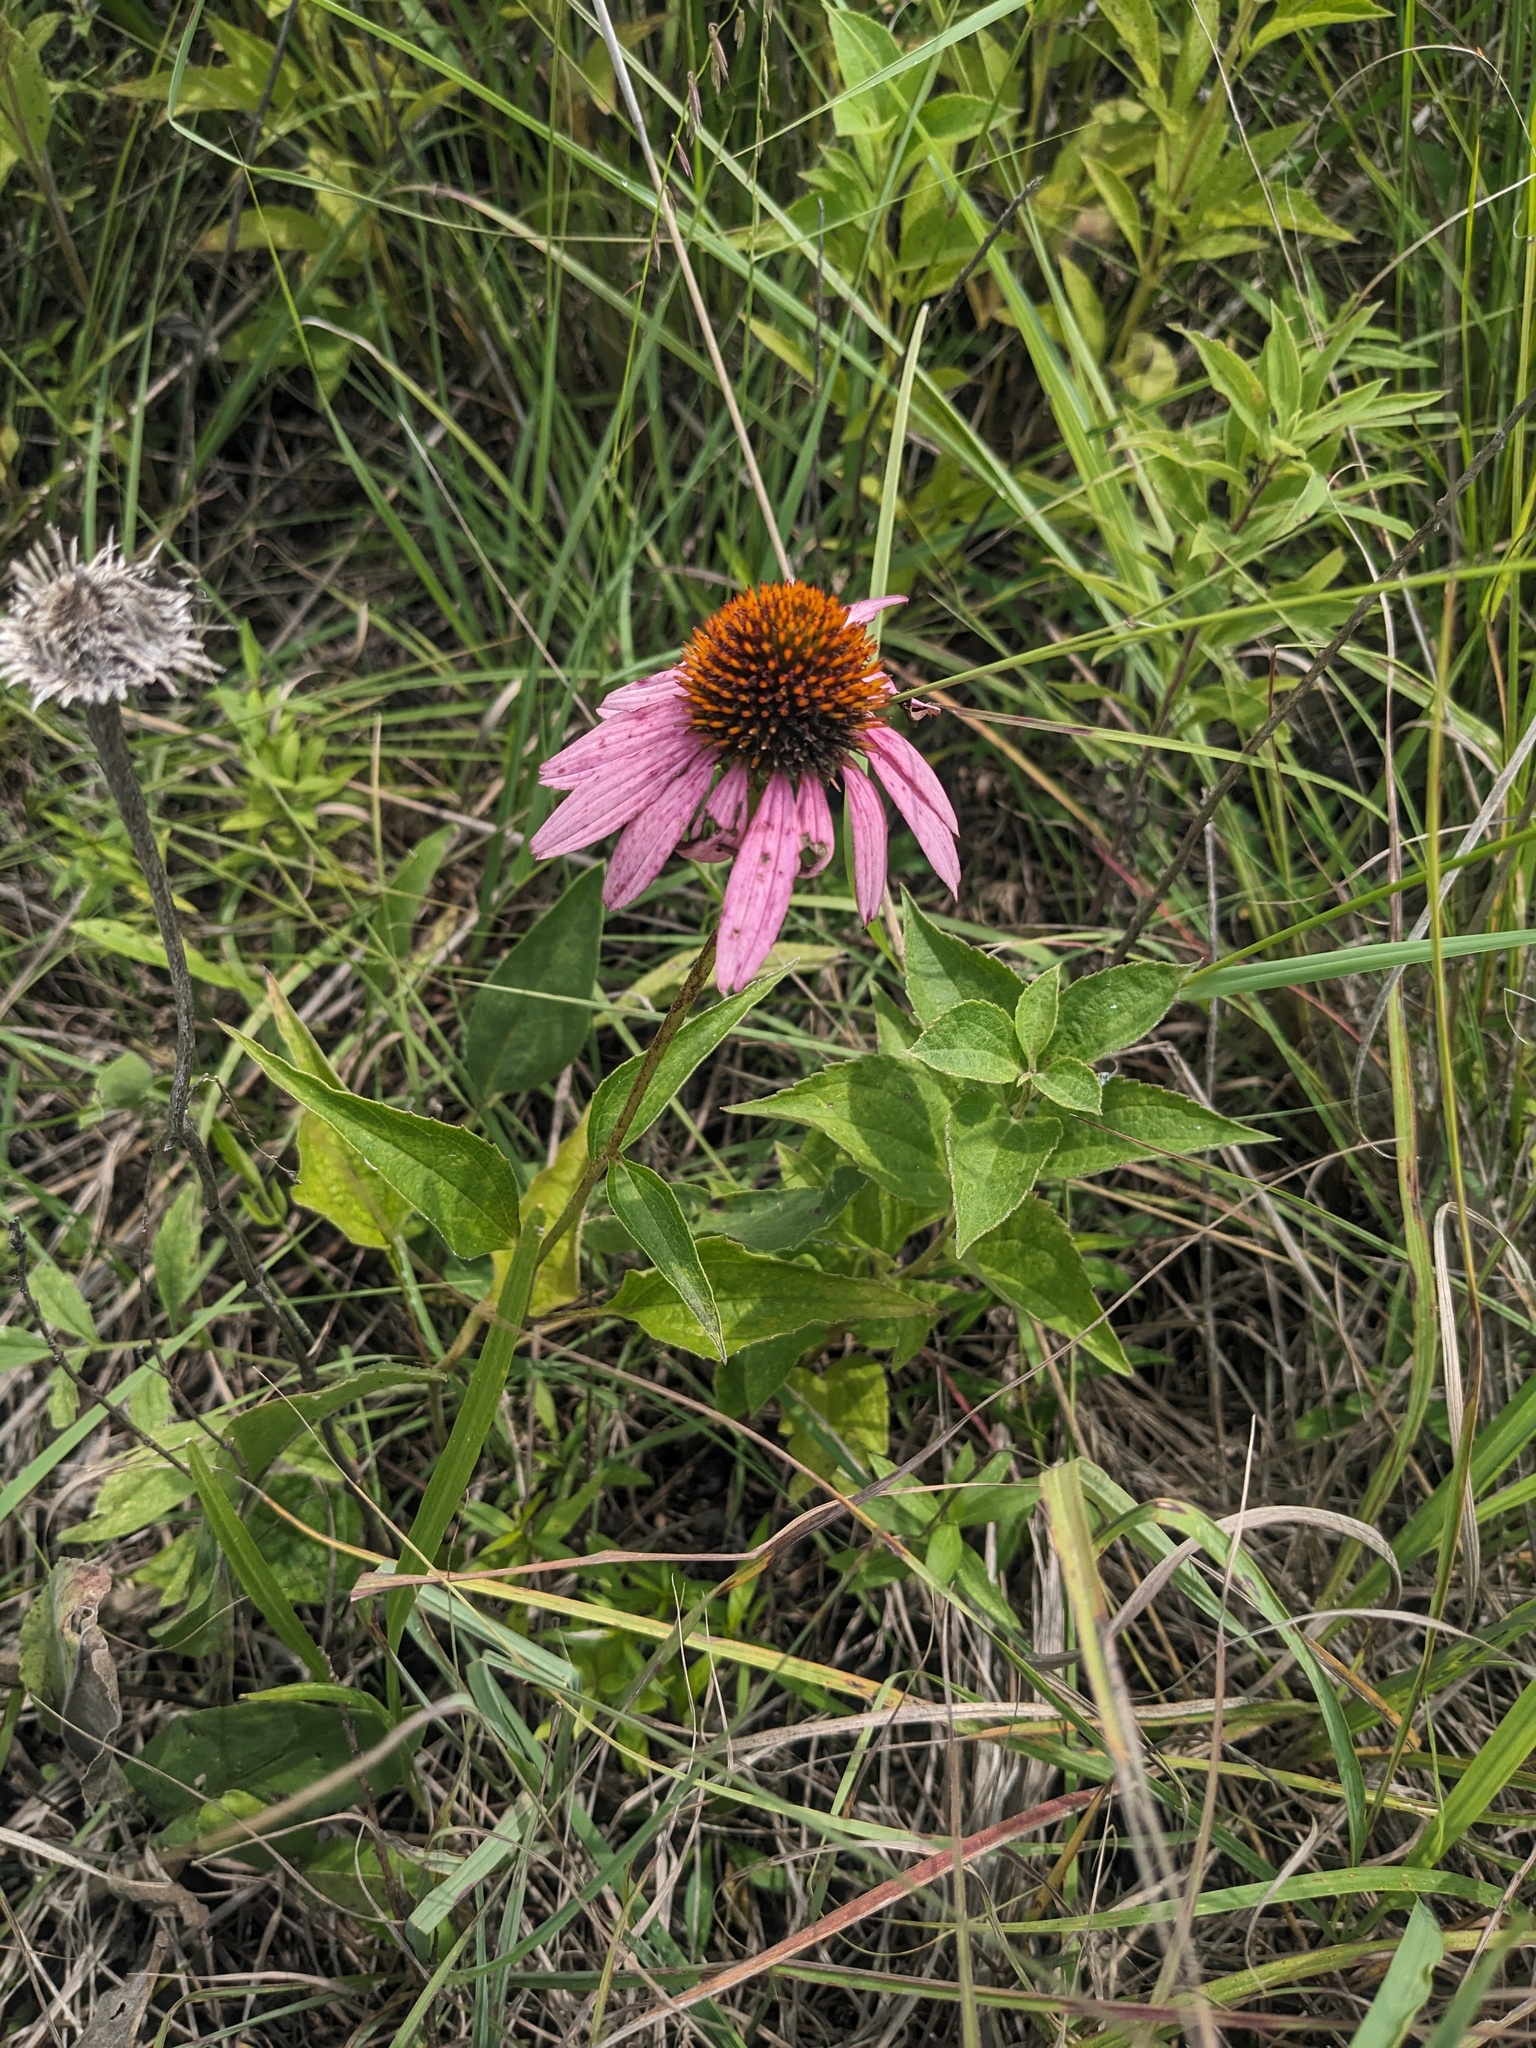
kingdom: Plantae
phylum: Tracheophyta
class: Magnoliopsida
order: Asterales
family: Asteraceae
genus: Echinacea
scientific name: Echinacea purpurea
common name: Broad-leaved purple coneflower
